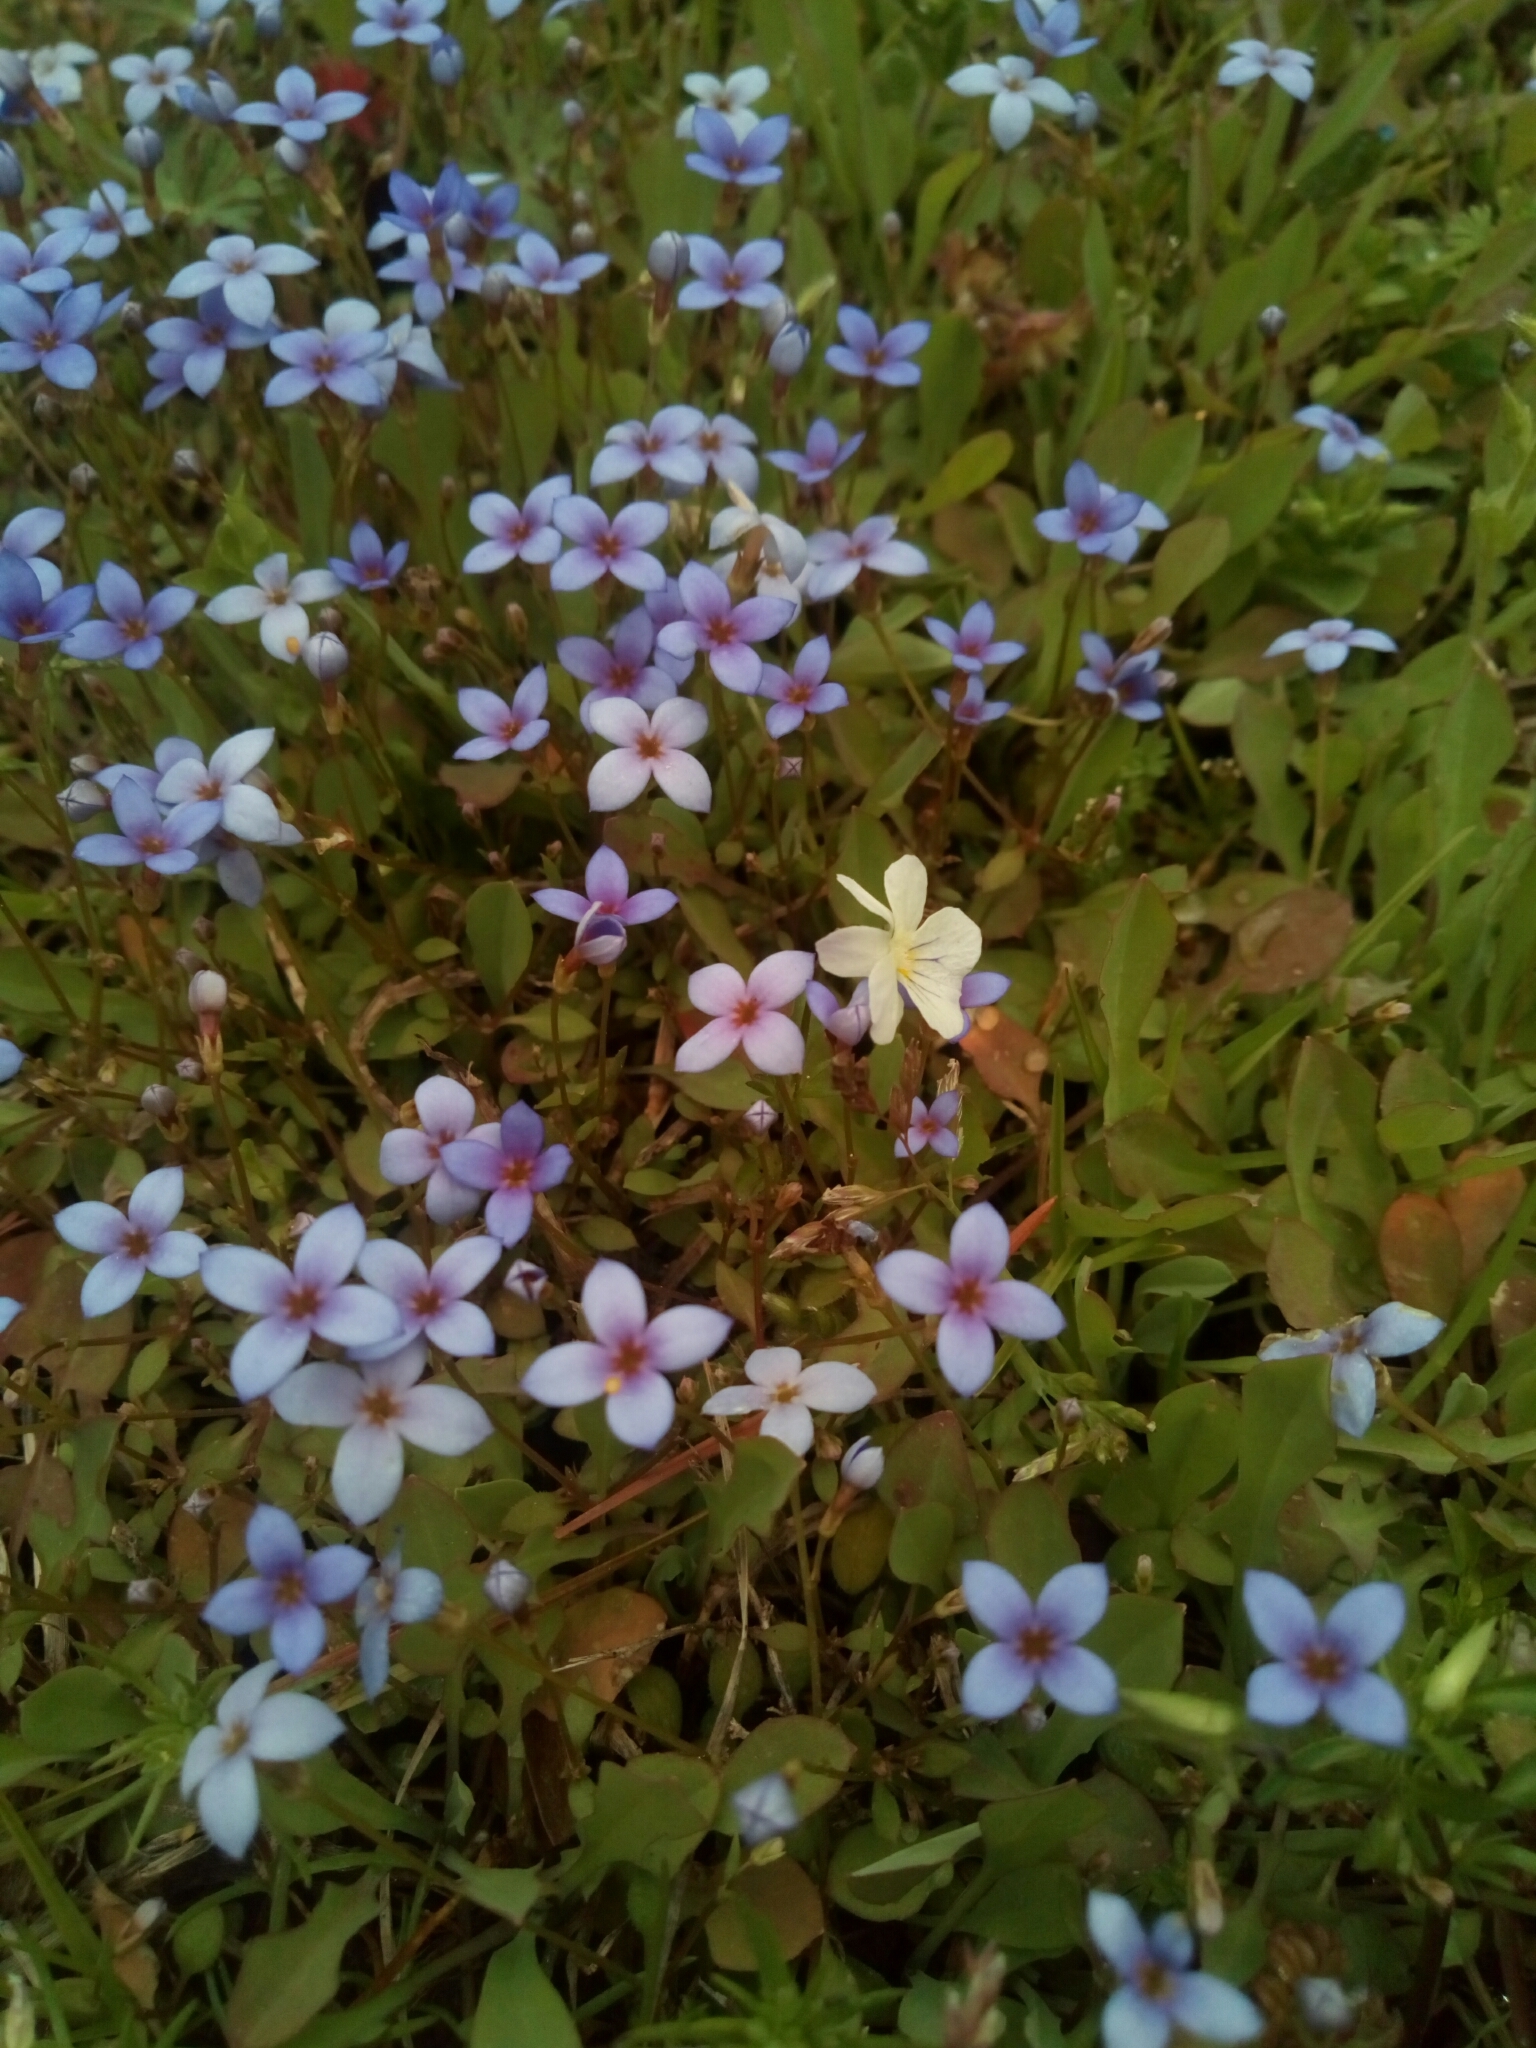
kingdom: Plantae
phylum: Tracheophyta
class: Magnoliopsida
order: Gentianales
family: Rubiaceae
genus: Houstonia
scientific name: Houstonia pusilla
